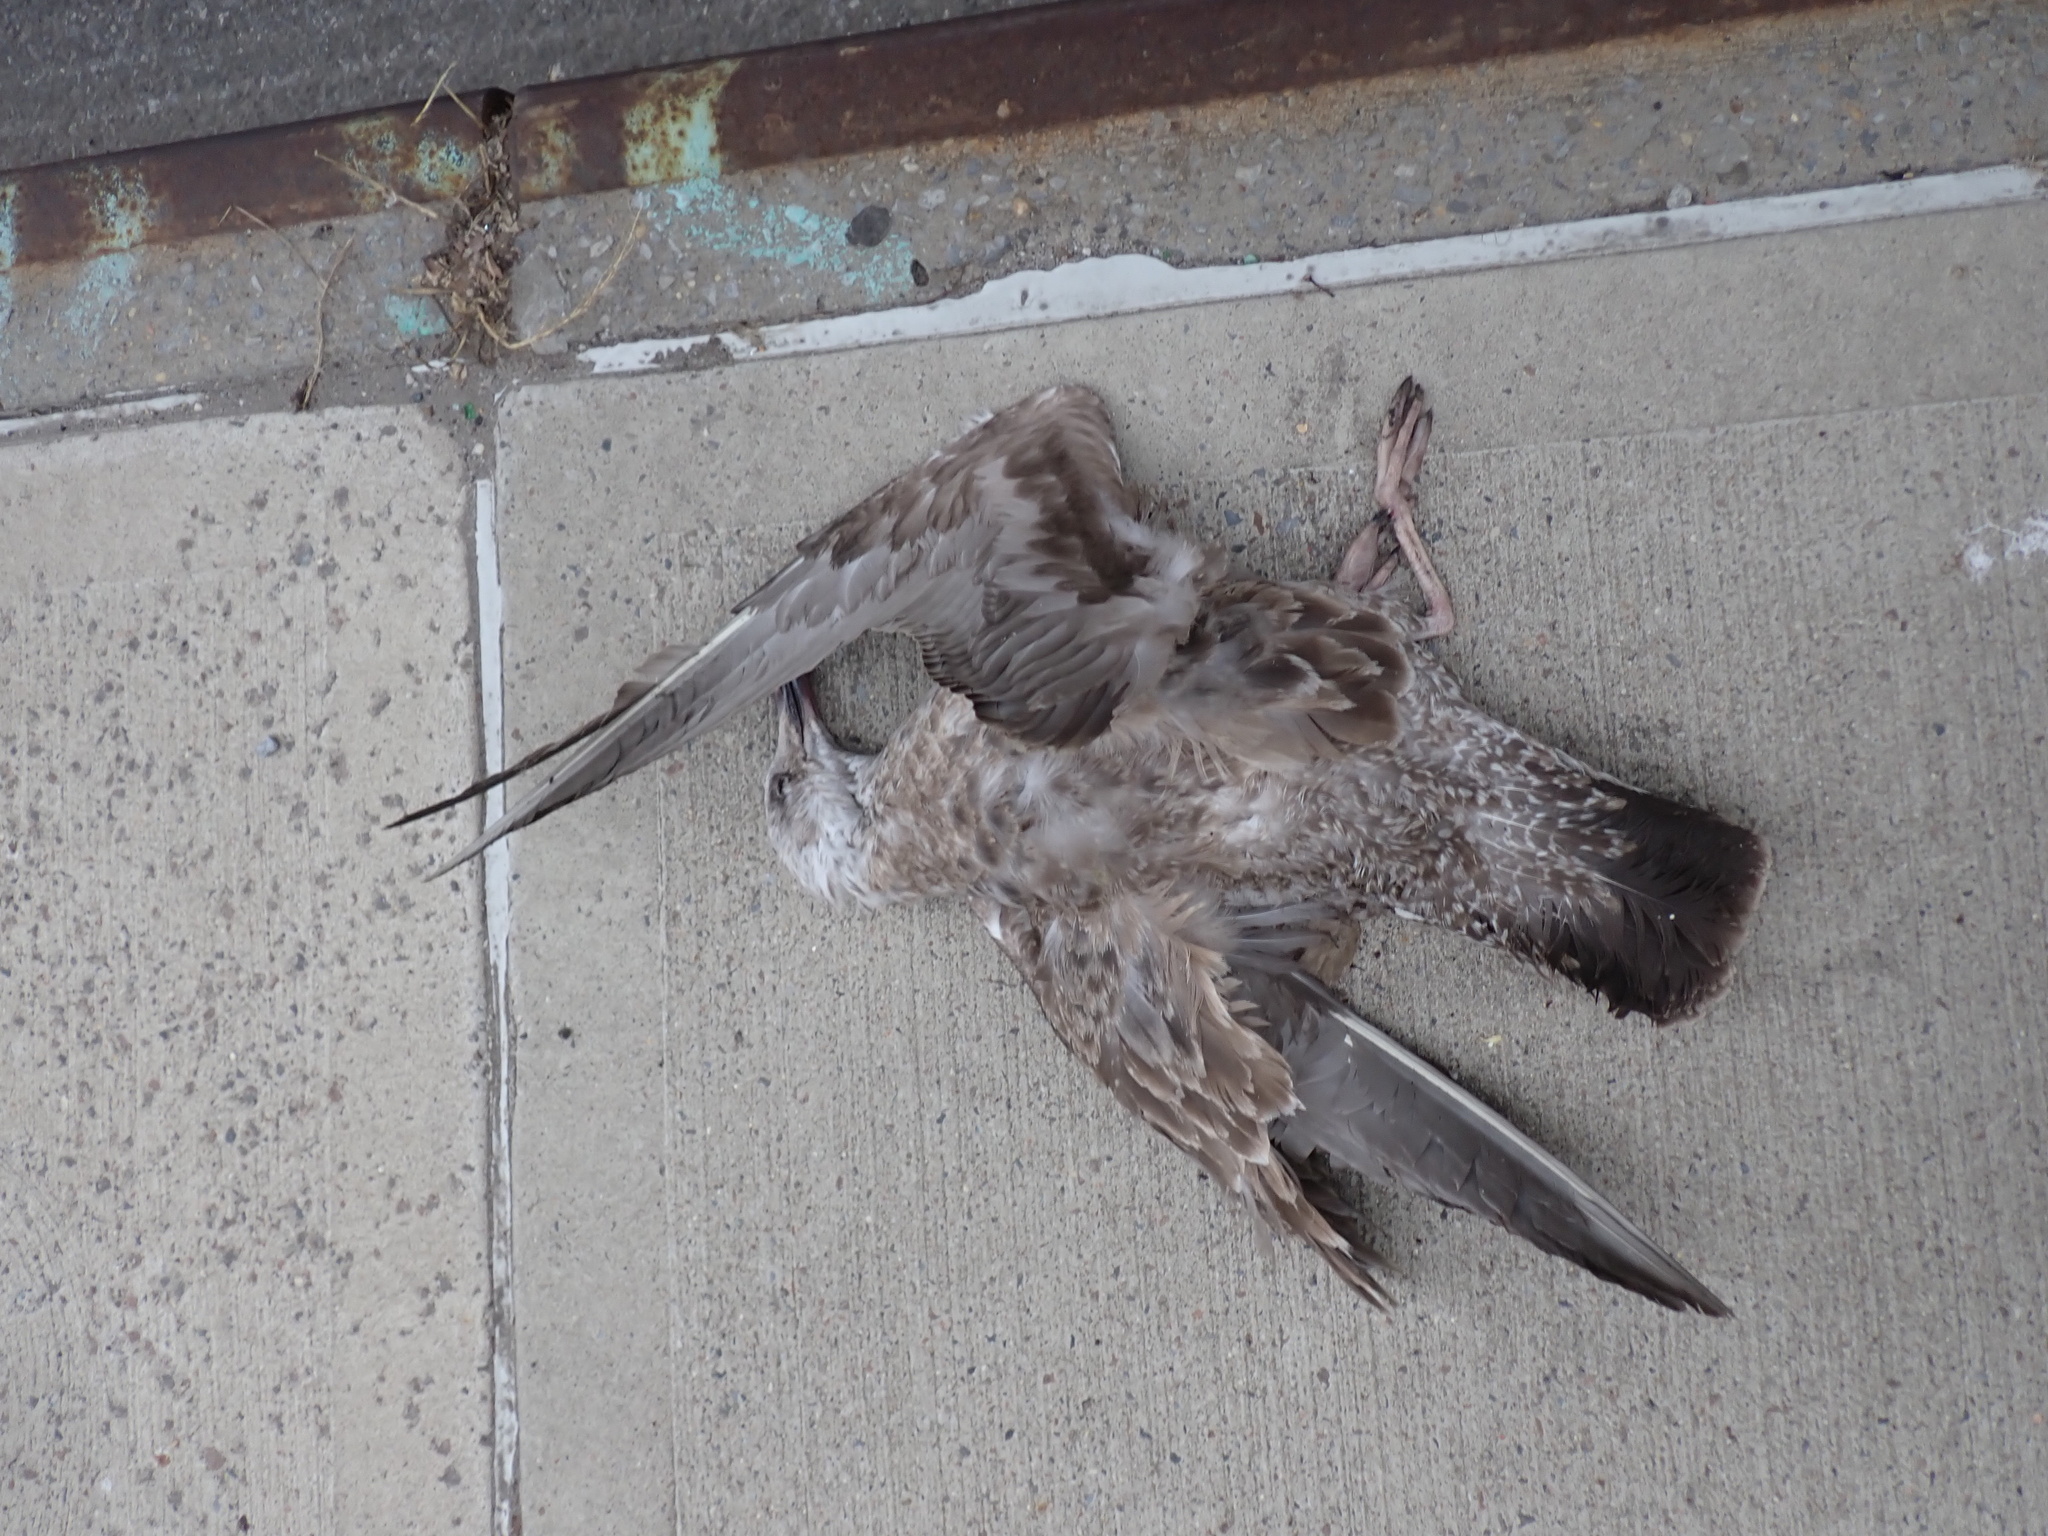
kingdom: Animalia
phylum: Chordata
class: Aves
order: Charadriiformes
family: Laridae
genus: Larus
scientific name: Larus argentatus
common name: Herring gull
